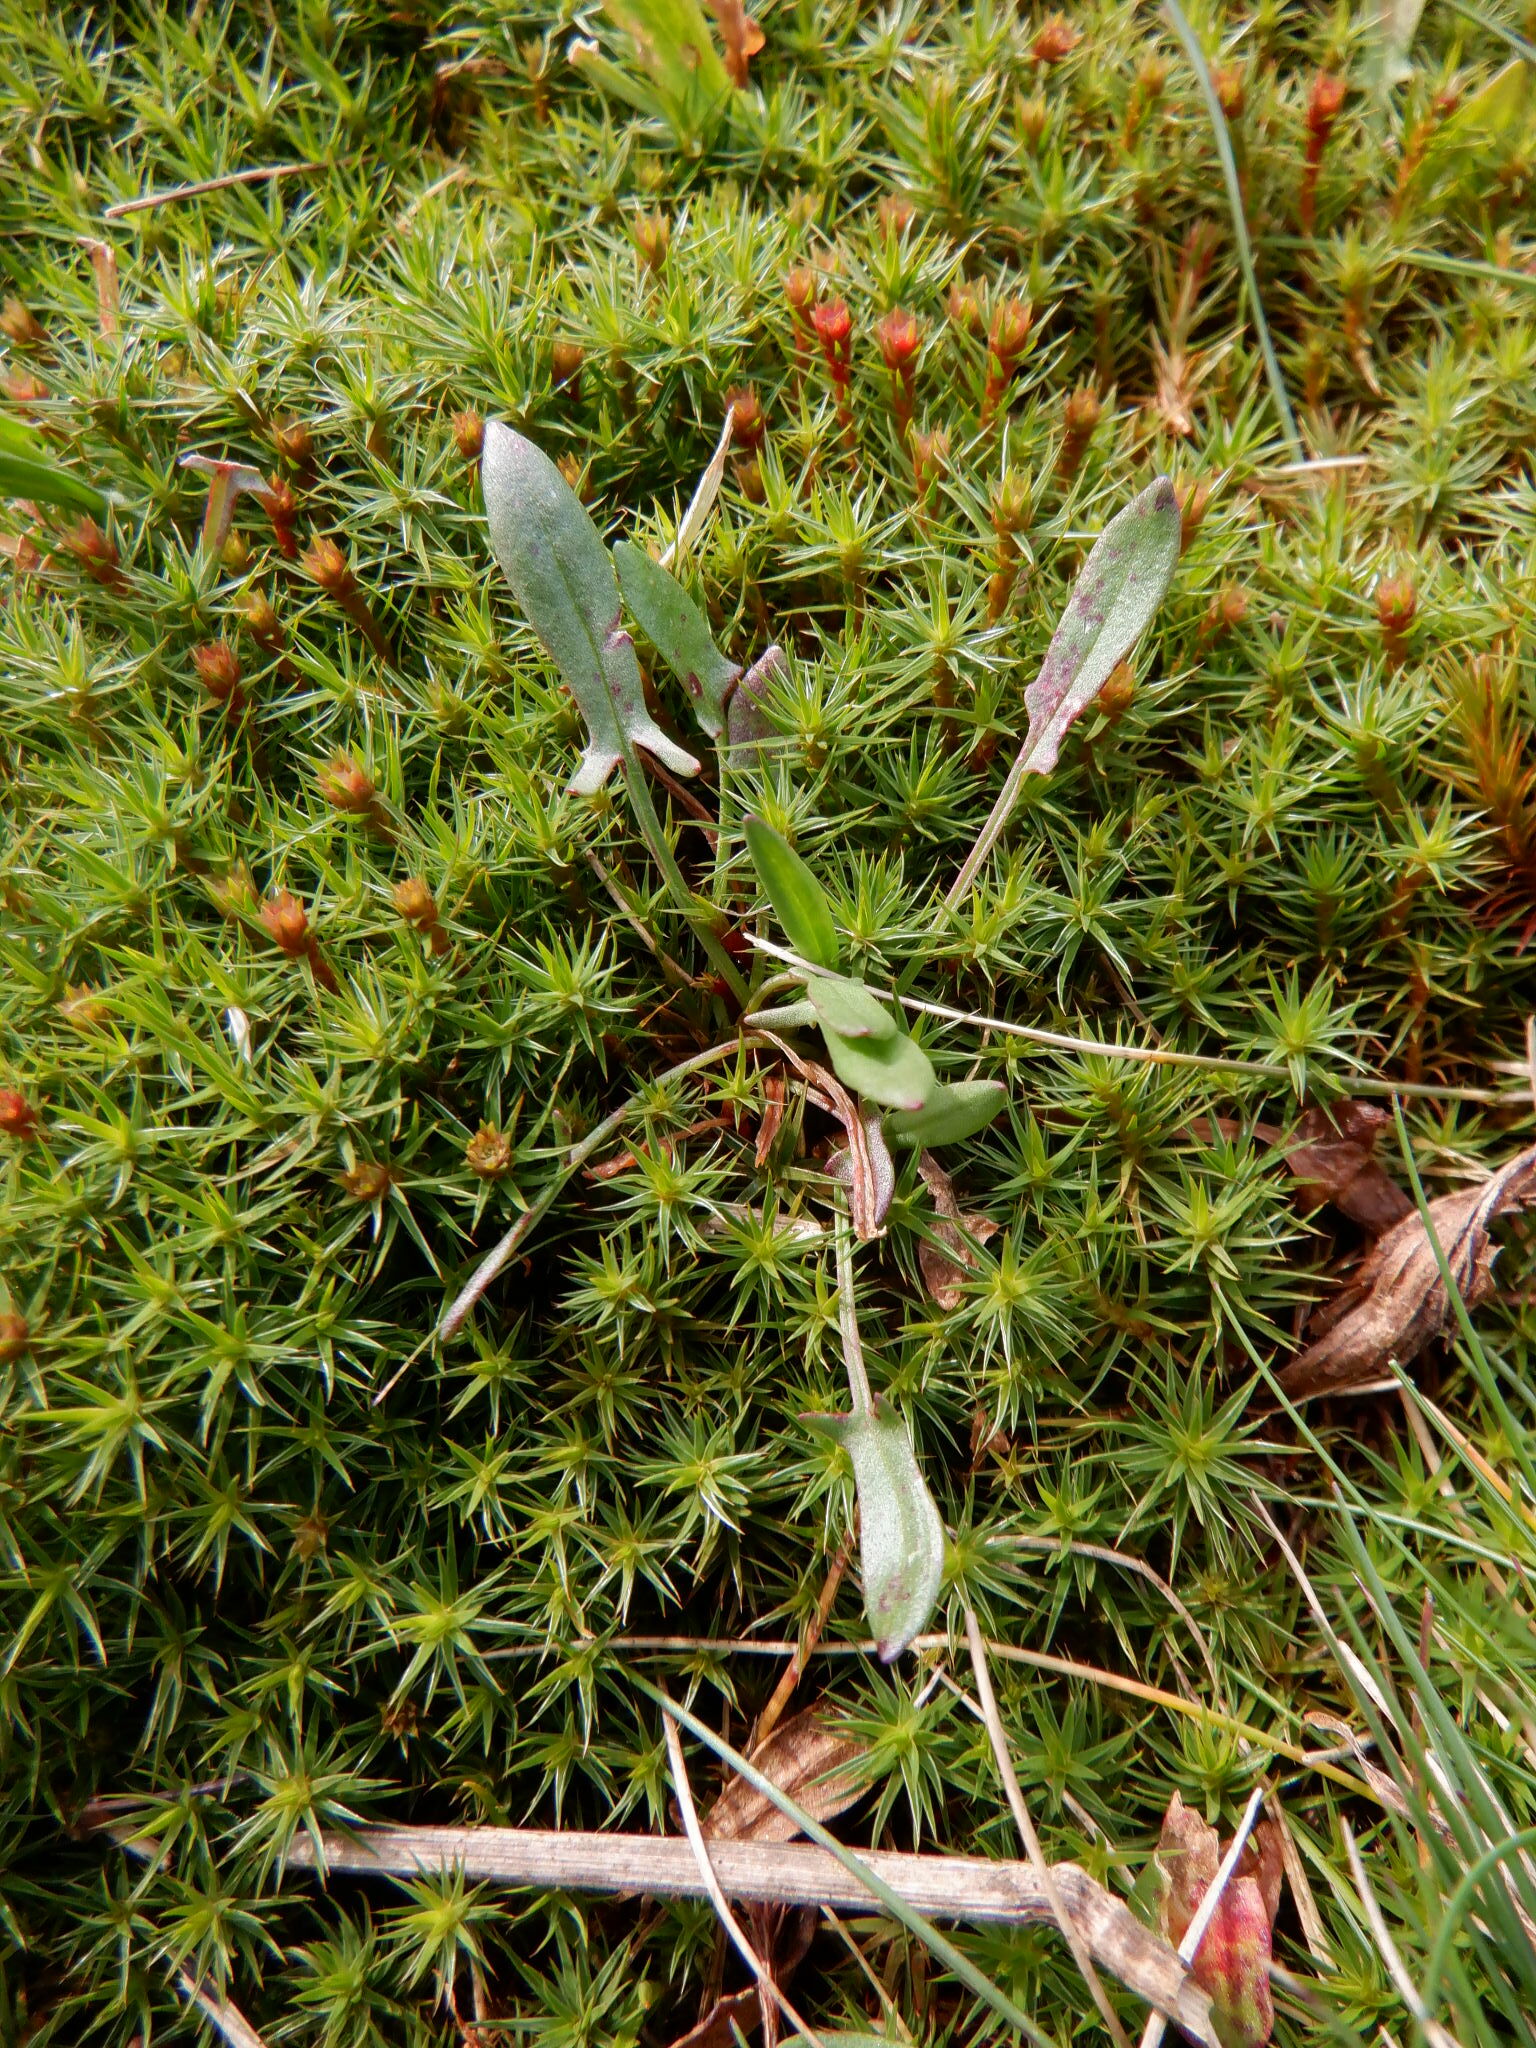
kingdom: Plantae
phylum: Tracheophyta
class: Magnoliopsida
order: Caryophyllales
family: Polygonaceae
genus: Rumex
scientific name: Rumex acetosella
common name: Common sheep sorrel
